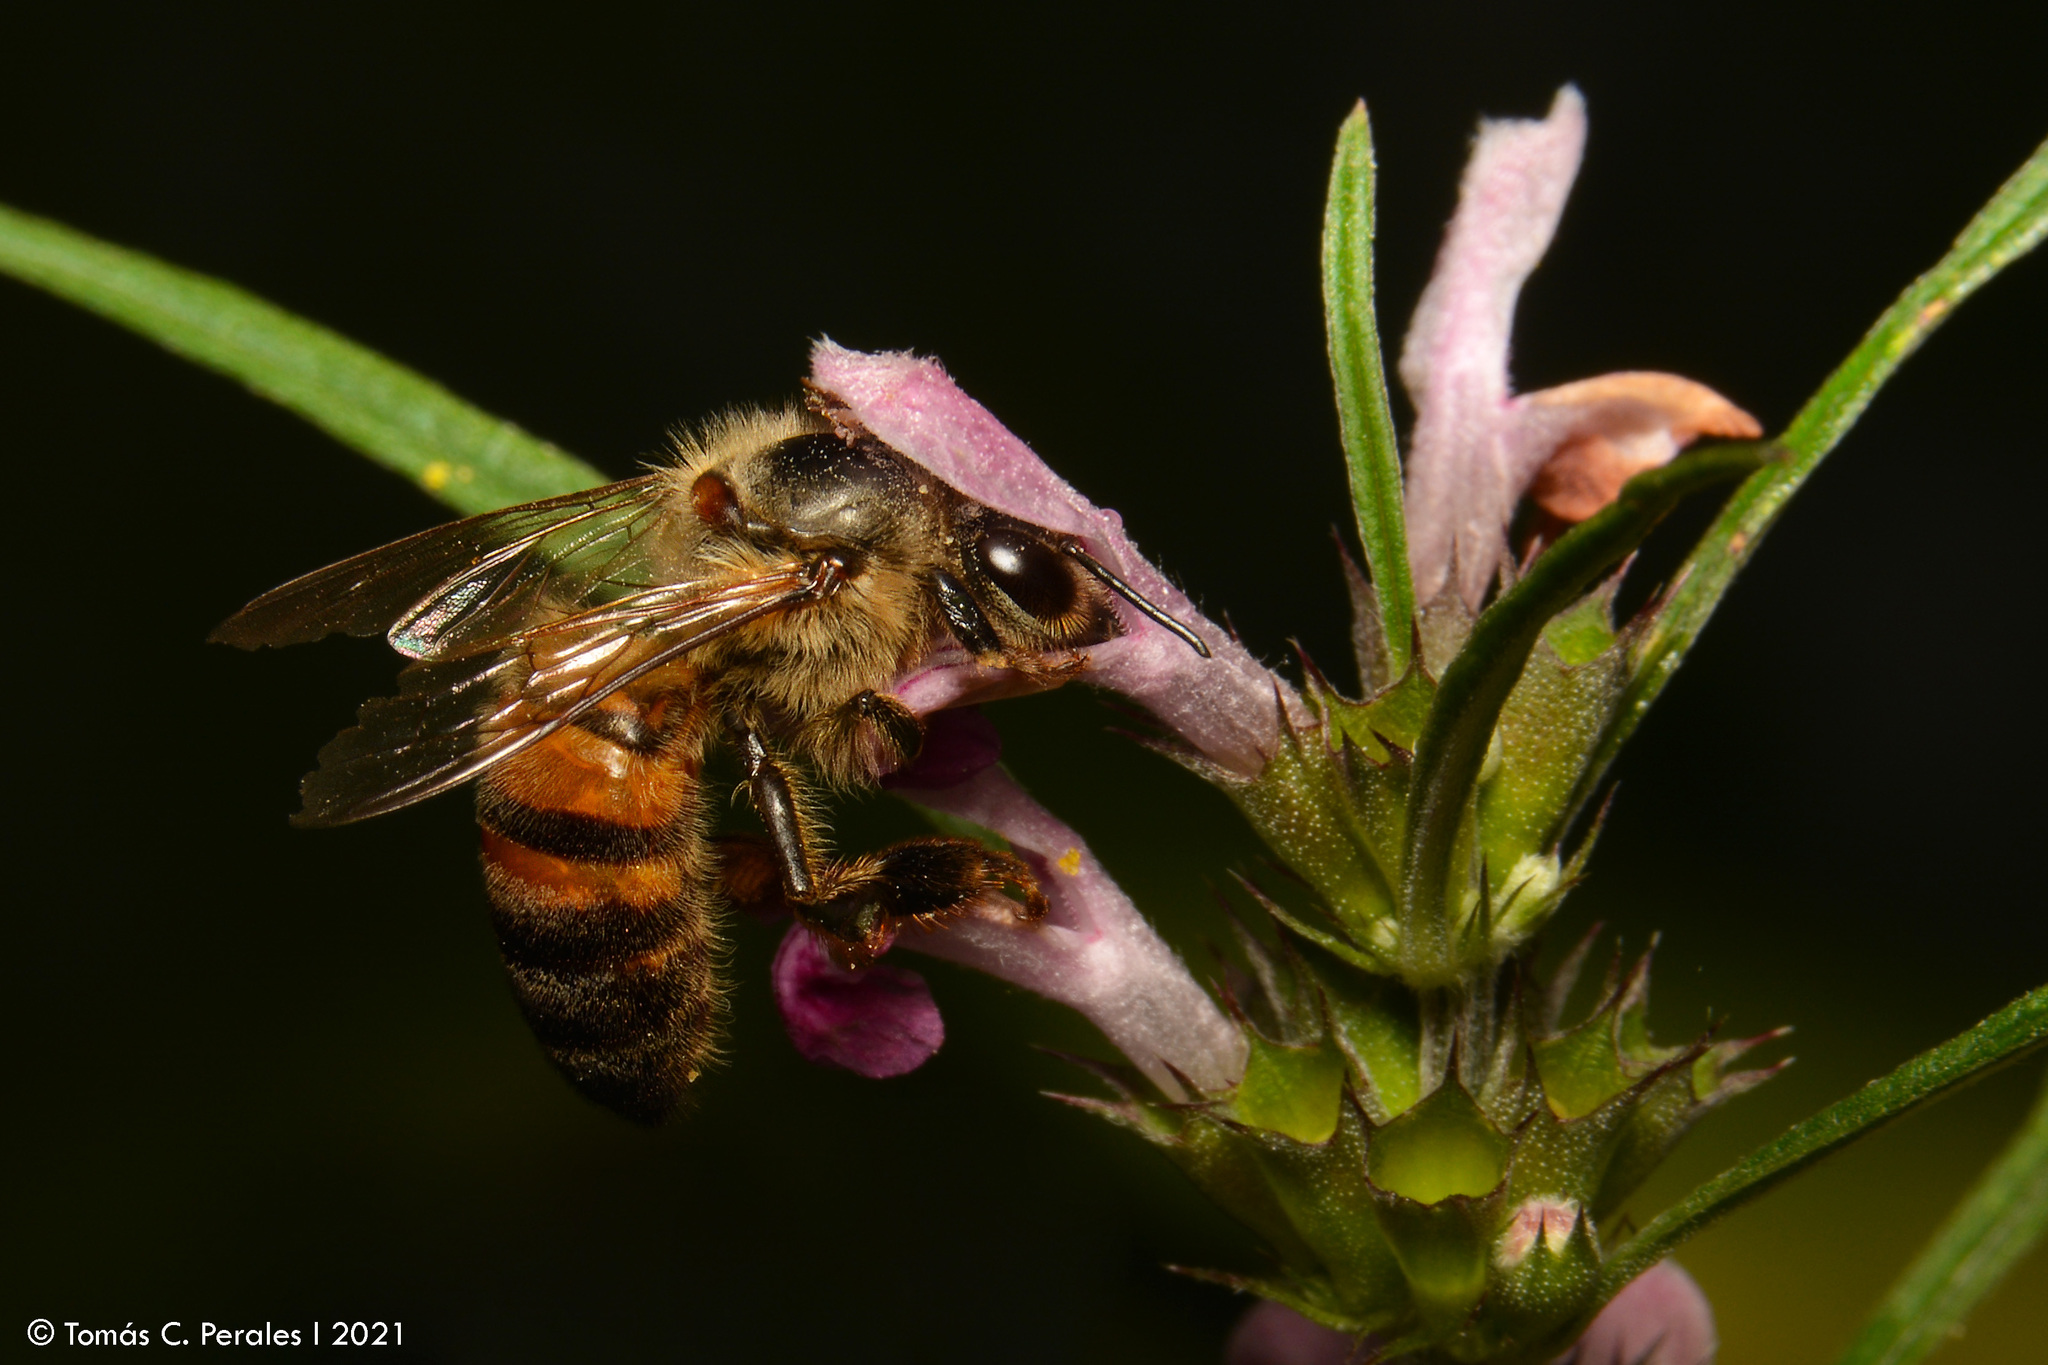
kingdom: Animalia
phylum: Arthropoda
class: Insecta
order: Hymenoptera
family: Apidae
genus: Apis
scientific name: Apis mellifera
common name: Honey bee
